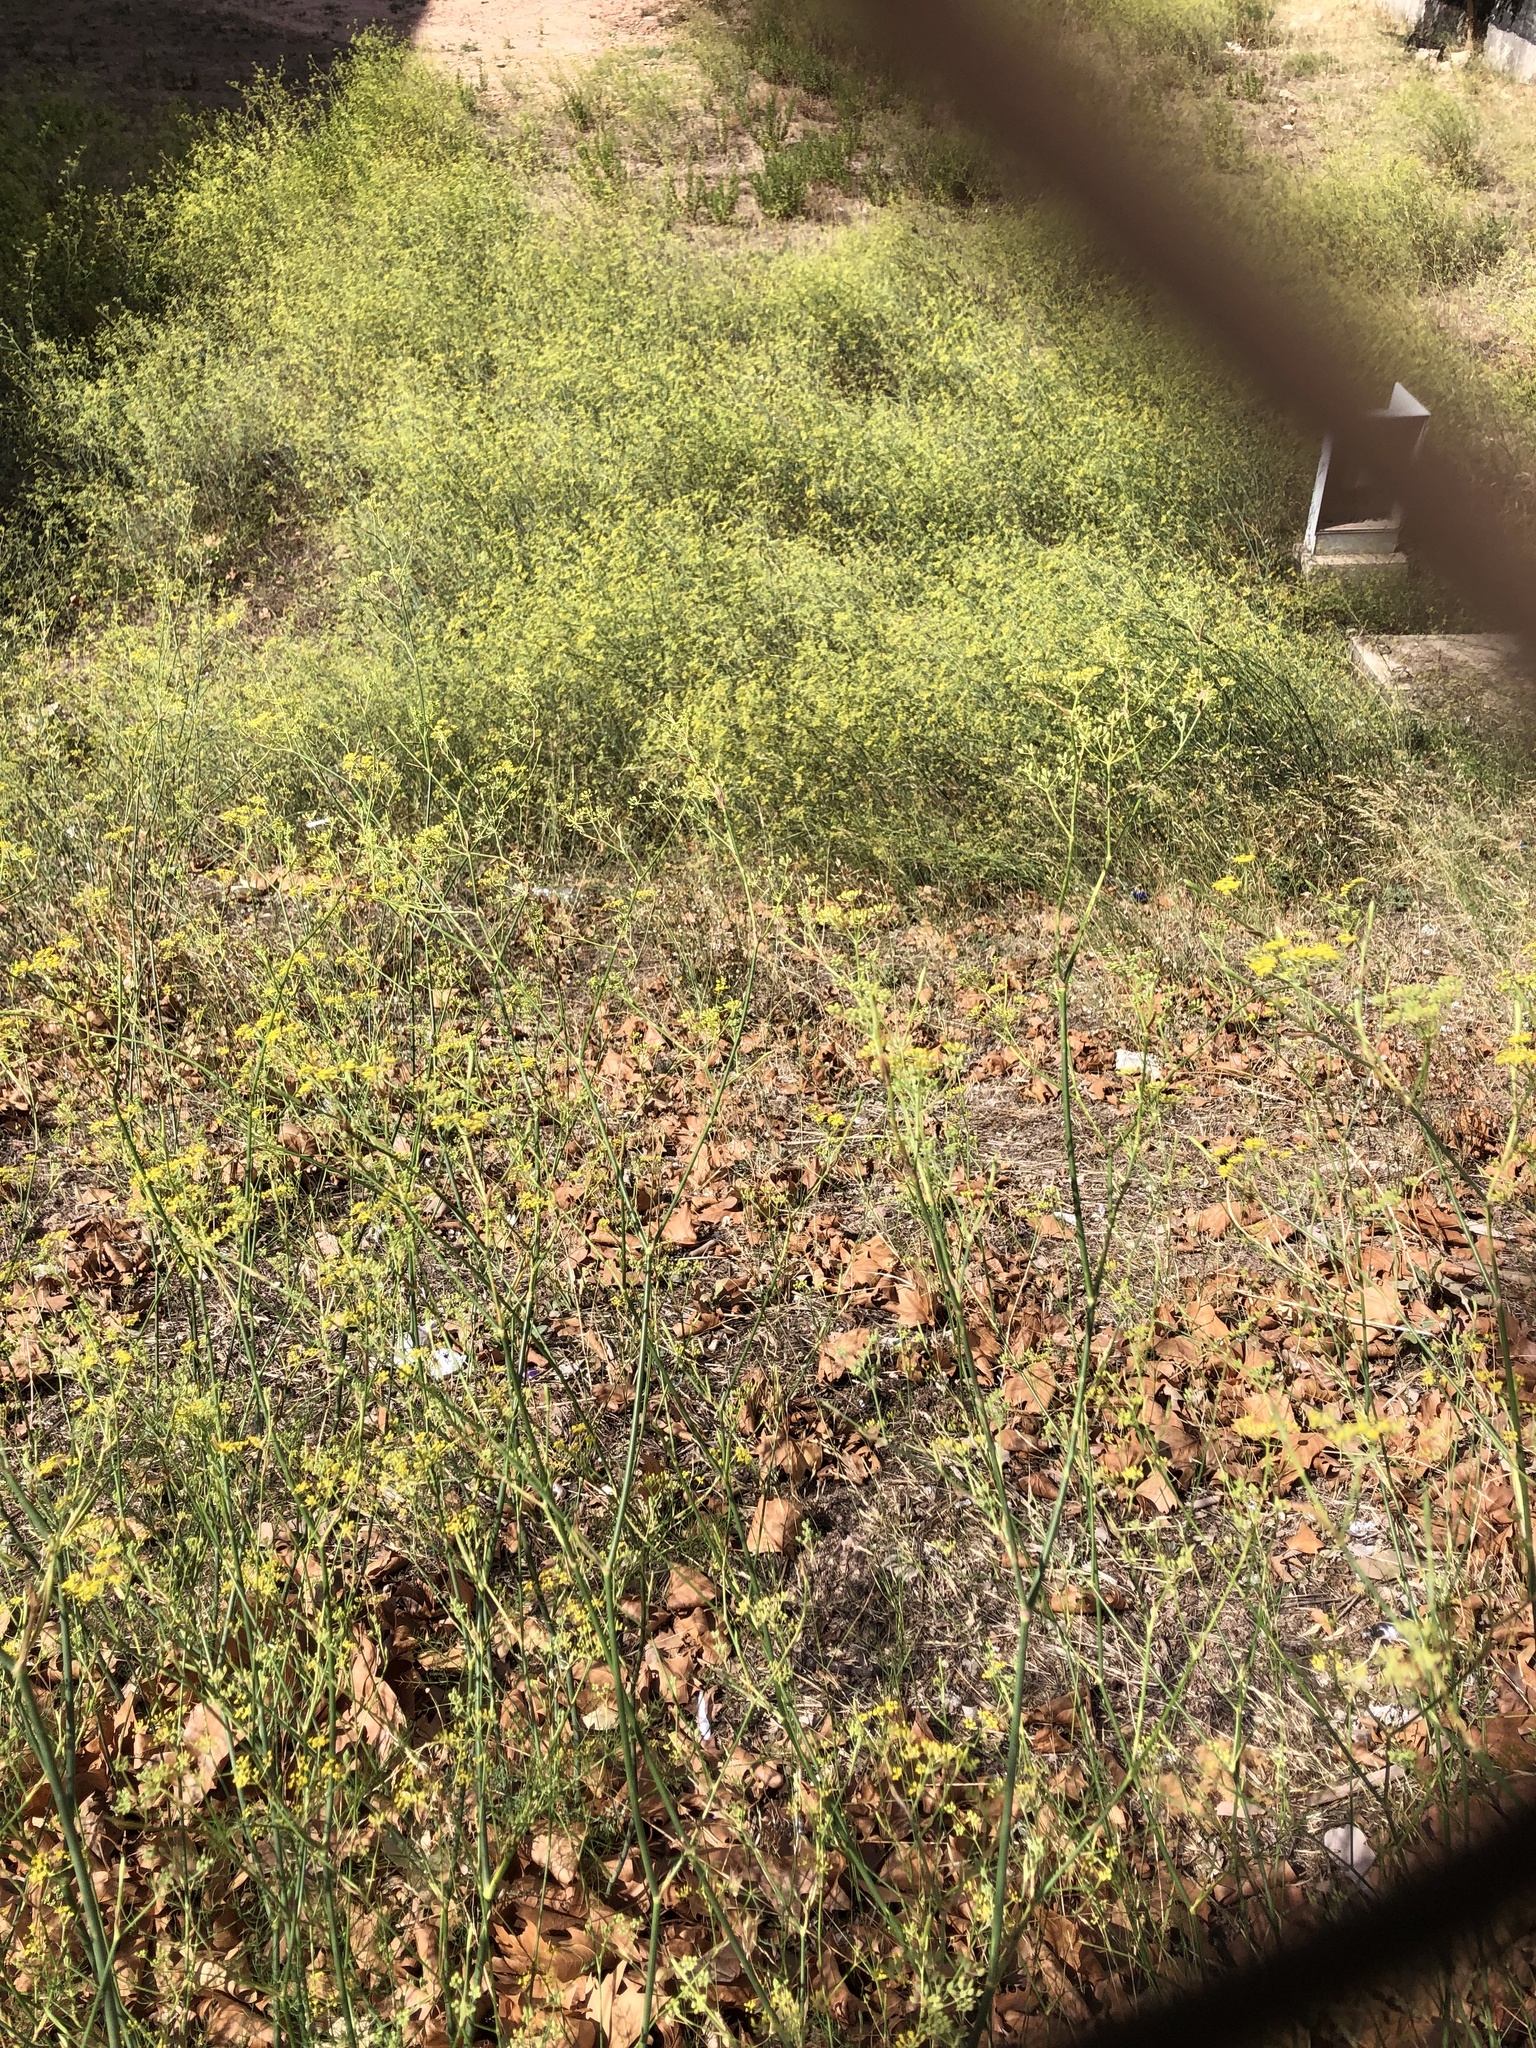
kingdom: Plantae
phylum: Tracheophyta
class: Magnoliopsida
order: Apiales
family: Apiaceae
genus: Foeniculum
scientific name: Foeniculum vulgare
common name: Fennel
